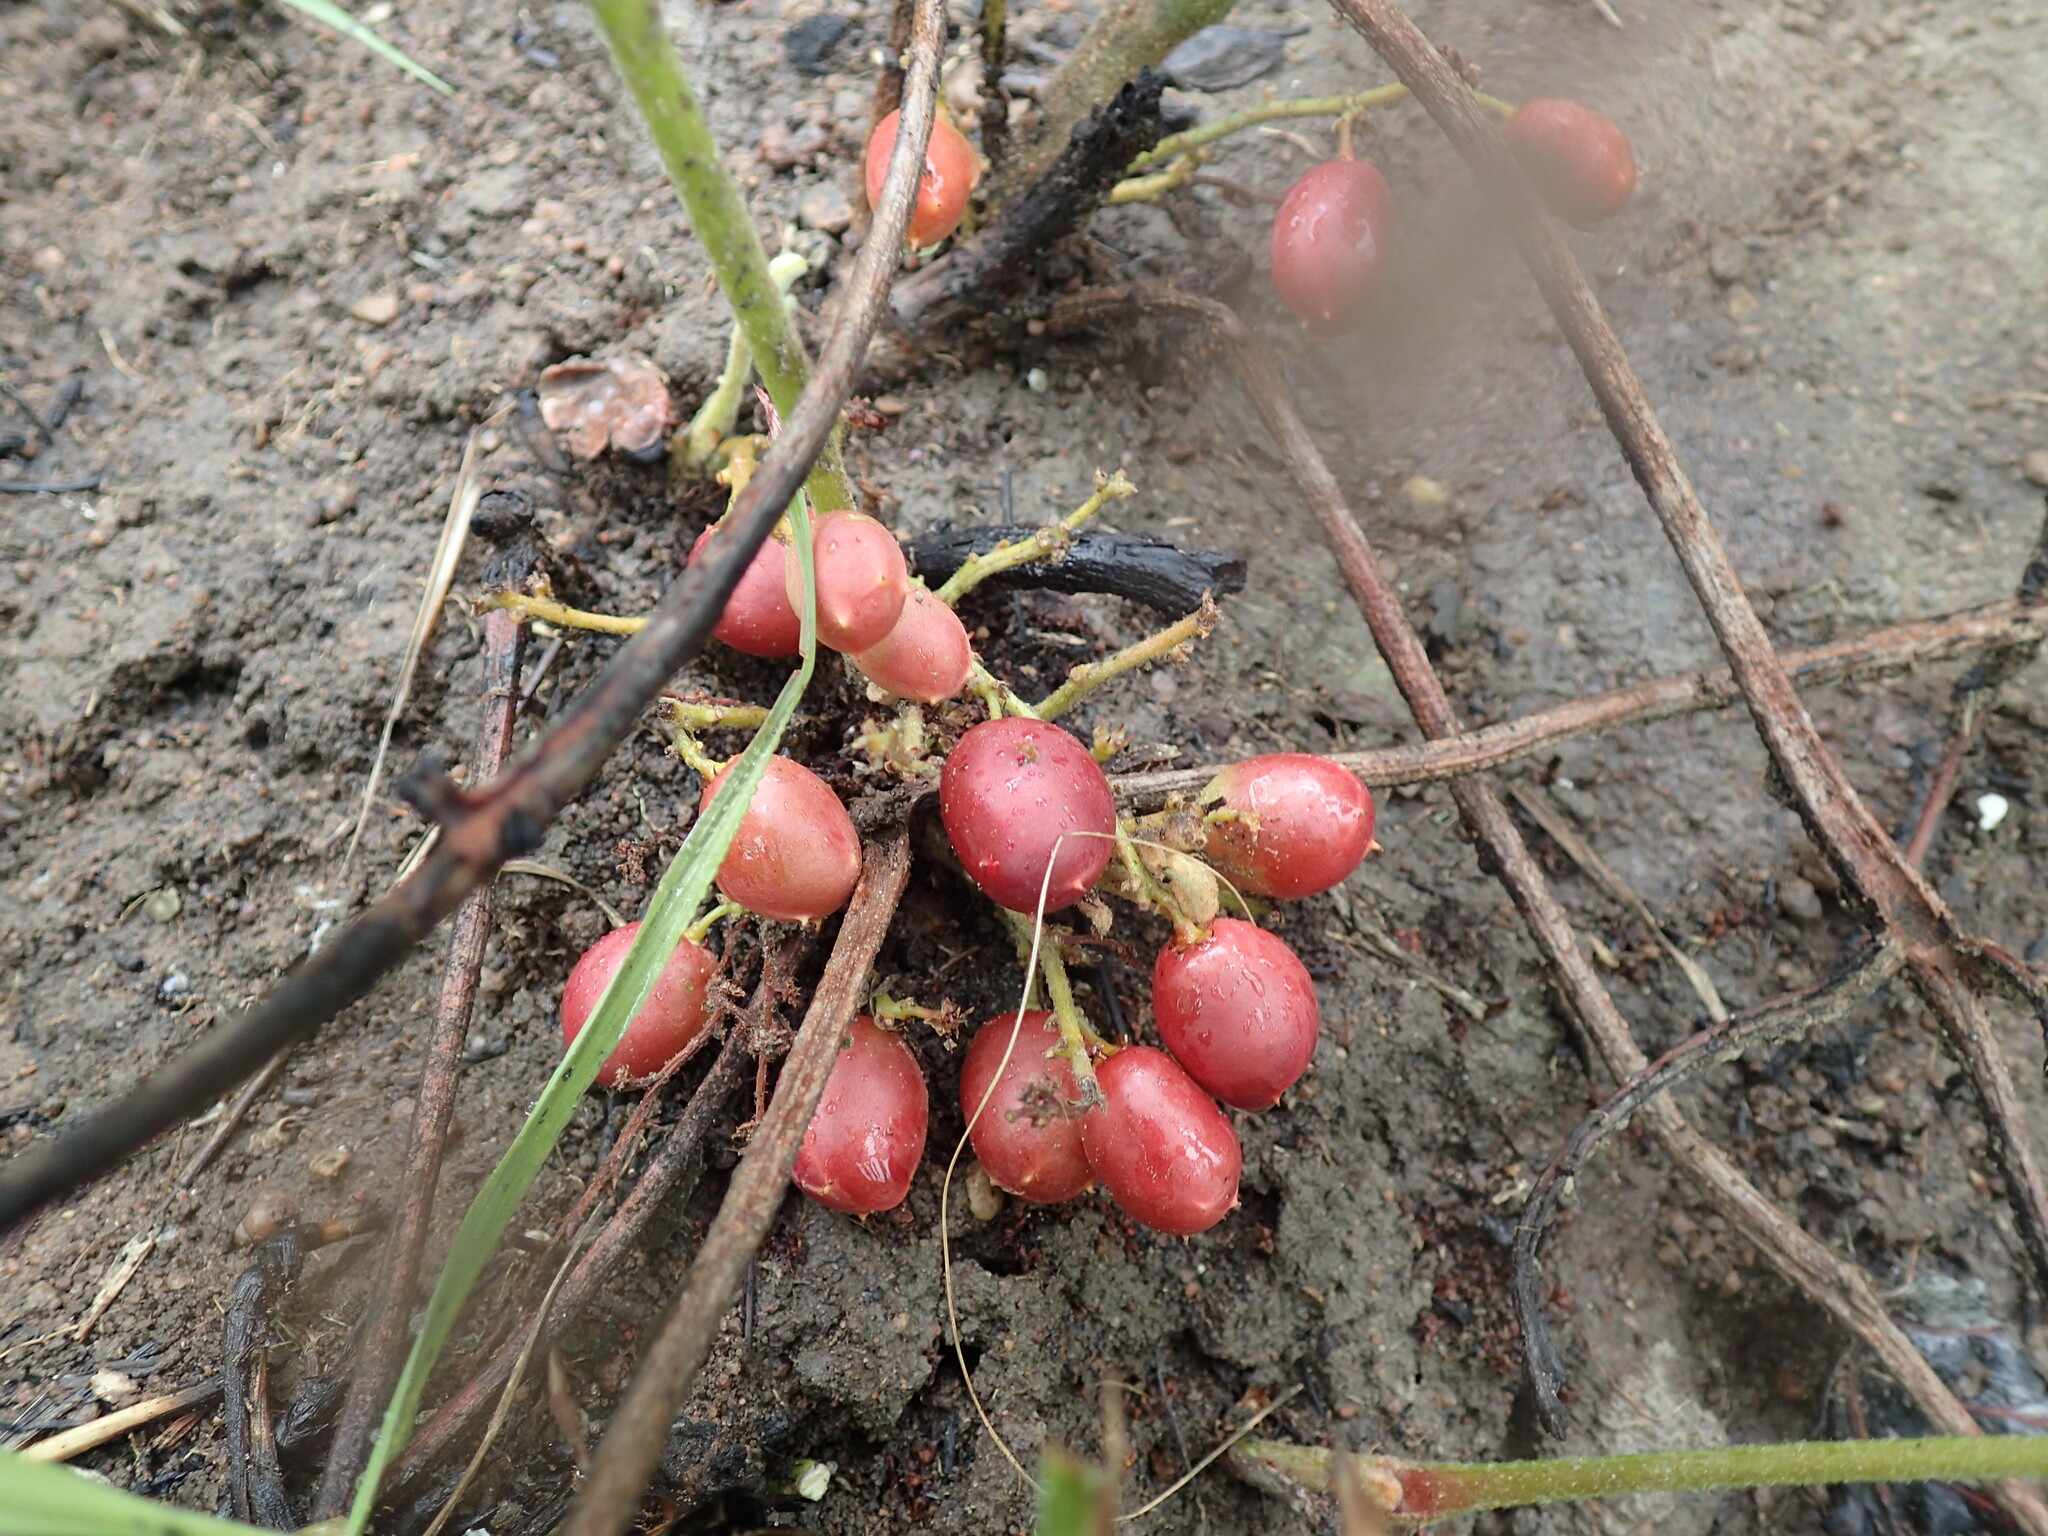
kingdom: Plantae
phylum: Tracheophyta
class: Magnoliopsida
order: Sapindales
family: Anacardiaceae
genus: Lannea
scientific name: Lannea edulis
